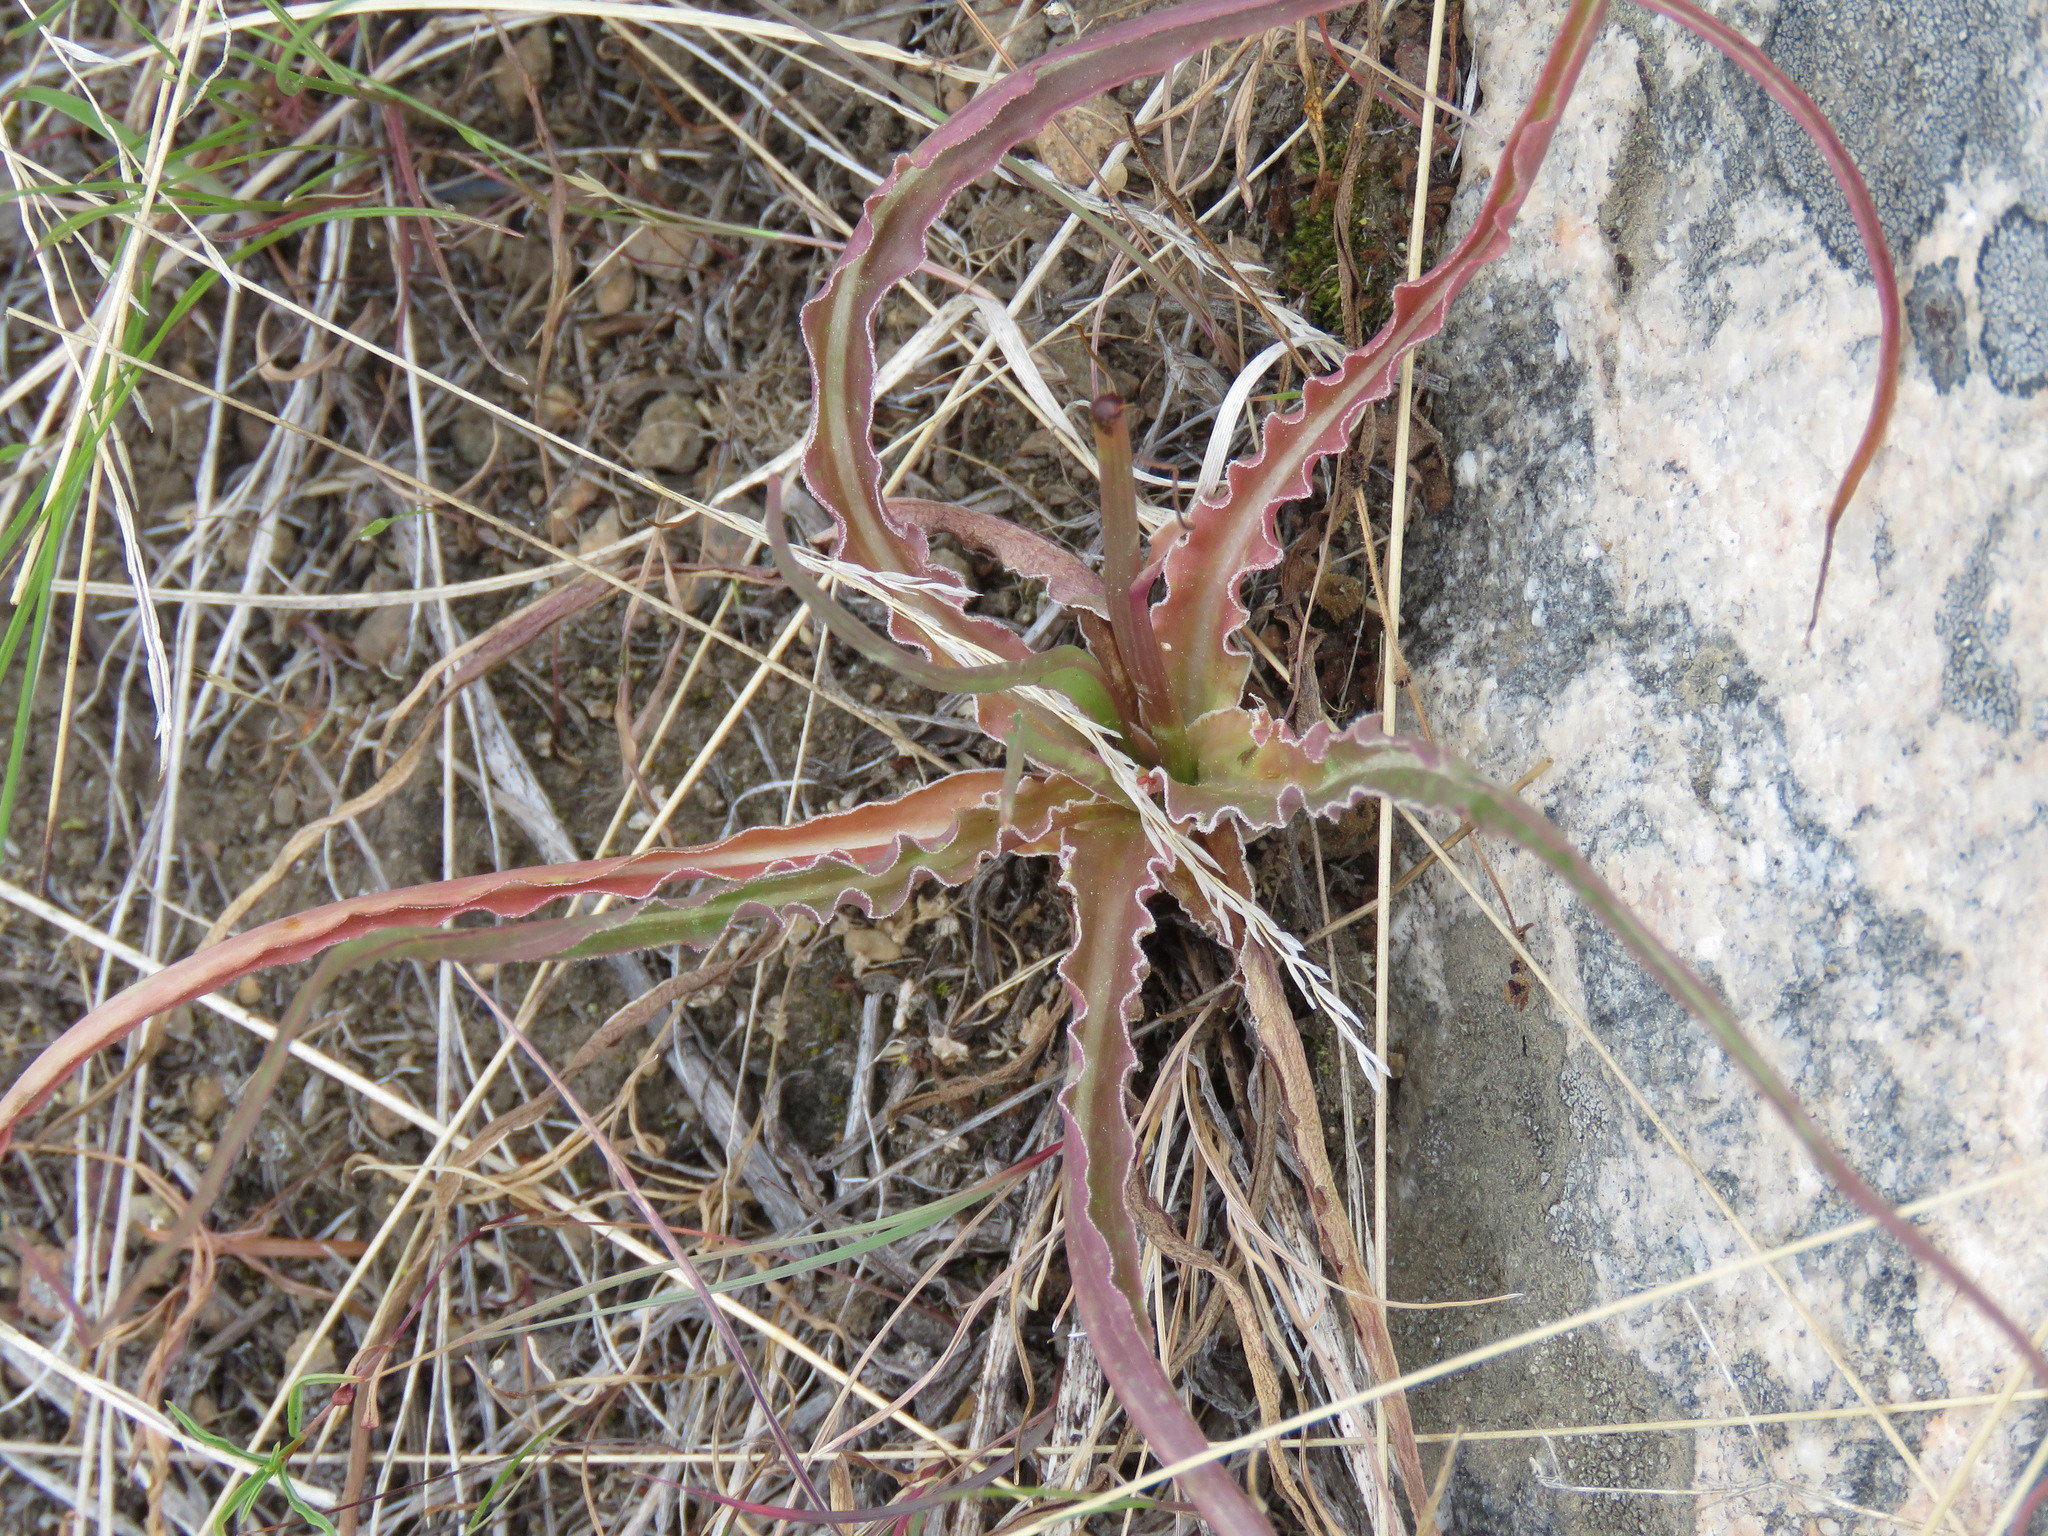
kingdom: Plantae
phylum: Tracheophyta
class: Magnoliopsida
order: Asterales
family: Asteraceae
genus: Microseris
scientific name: Microseris troximoides
